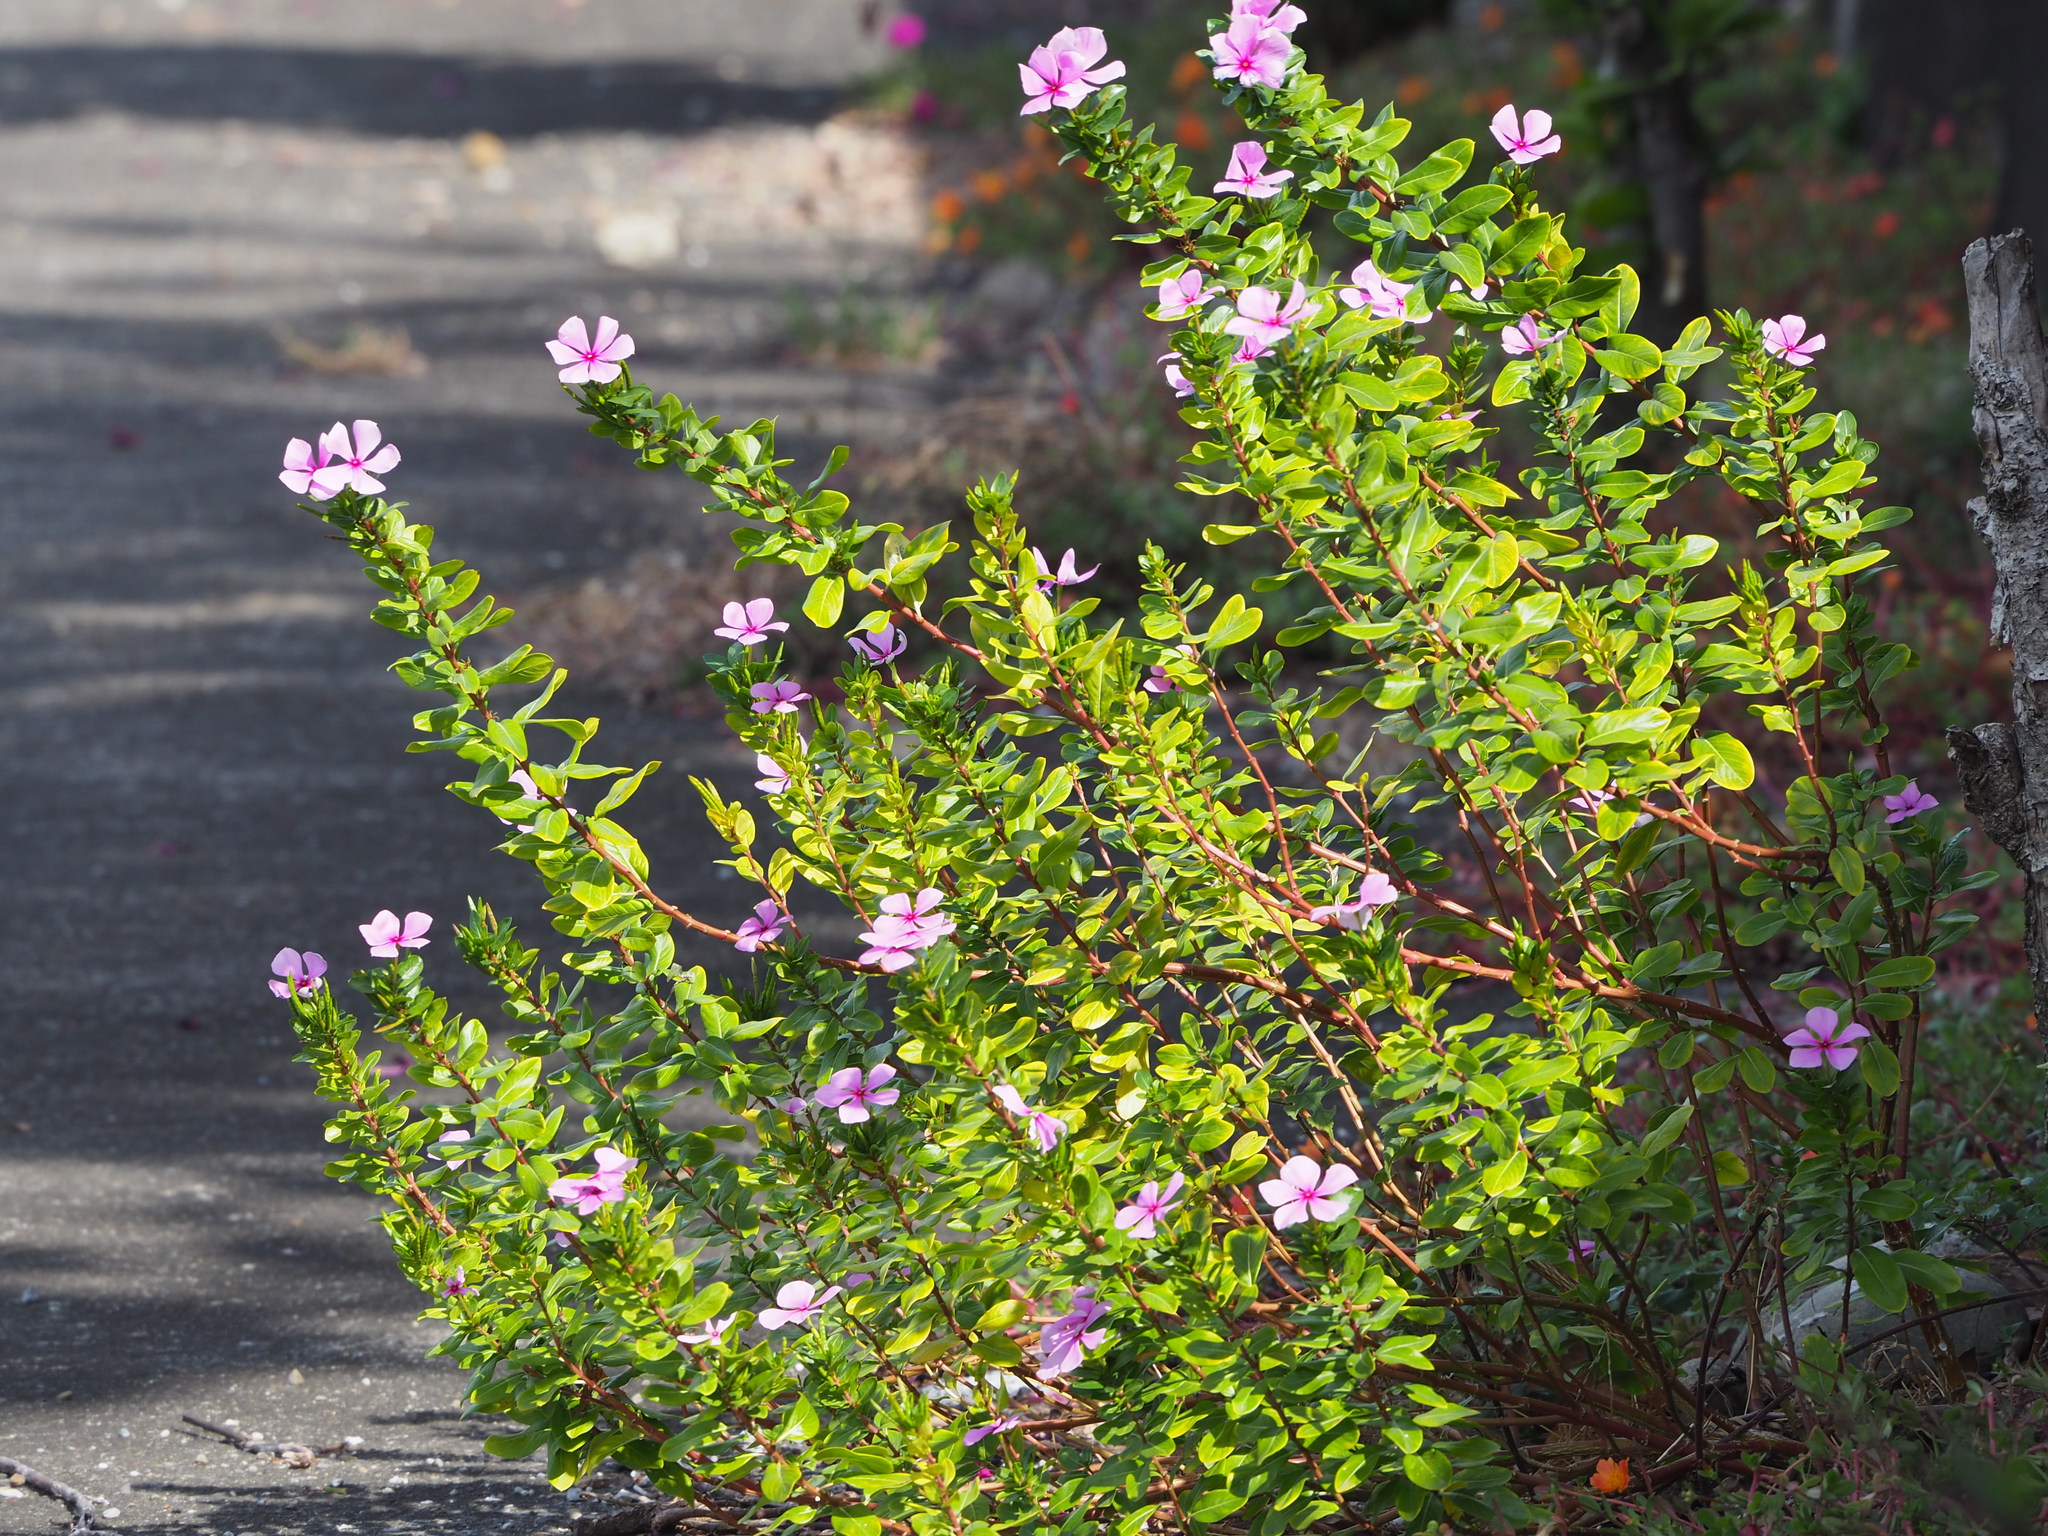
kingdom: Plantae
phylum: Tracheophyta
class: Magnoliopsida
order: Gentianales
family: Apocynaceae
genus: Catharanthus
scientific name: Catharanthus roseus
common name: Madagascar periwinkle
